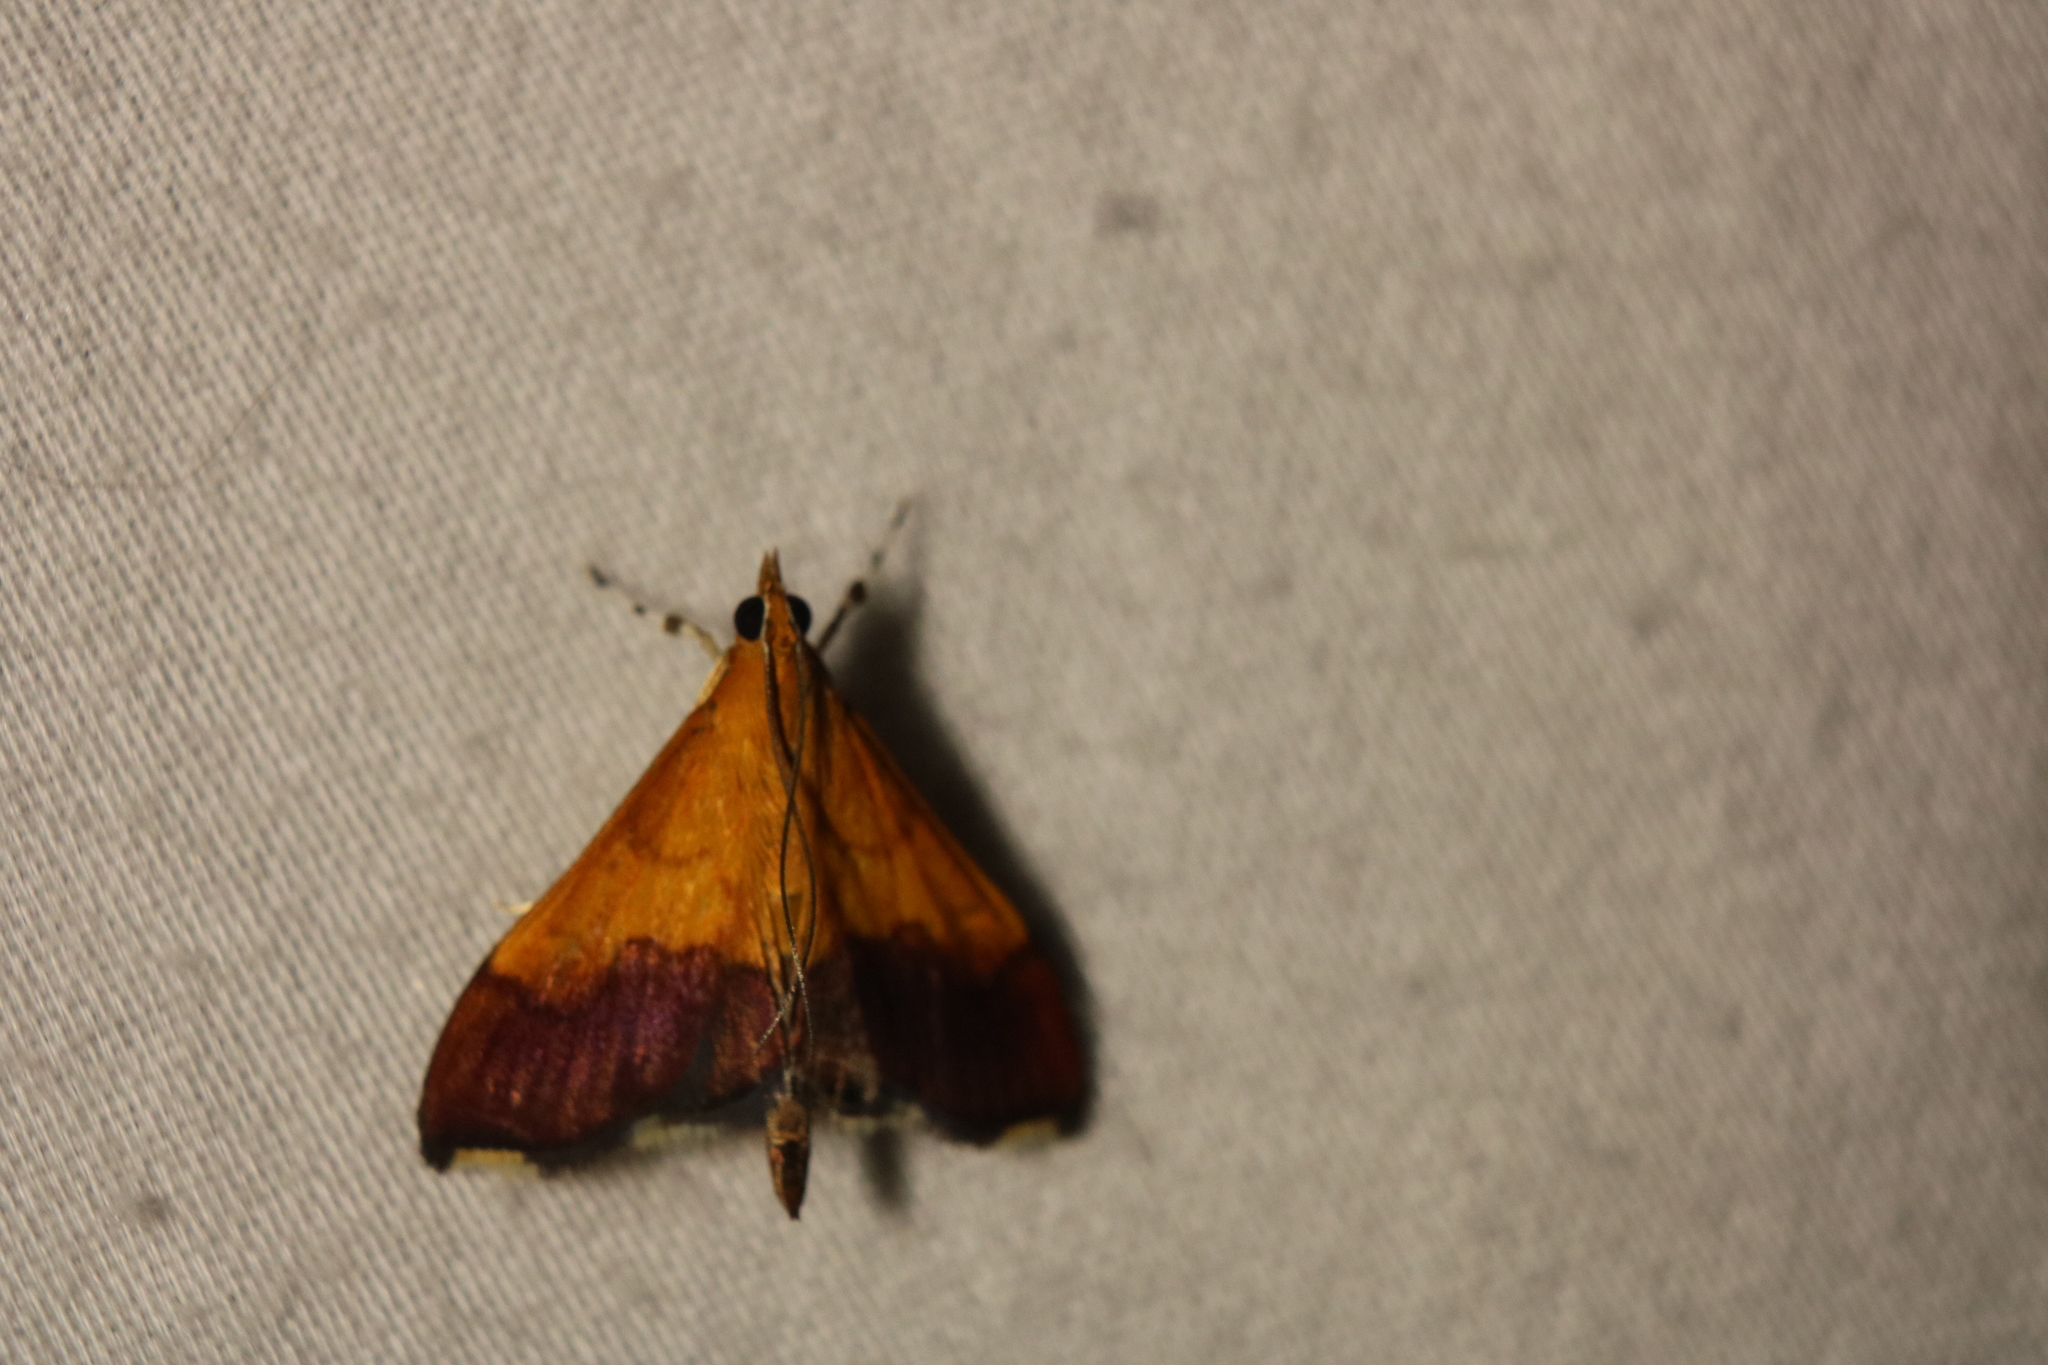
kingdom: Animalia
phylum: Arthropoda
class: Insecta
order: Lepidoptera
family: Crambidae
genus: Pyrausta
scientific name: Pyrausta bicoloralis
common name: Bicolored pyrausta moth
